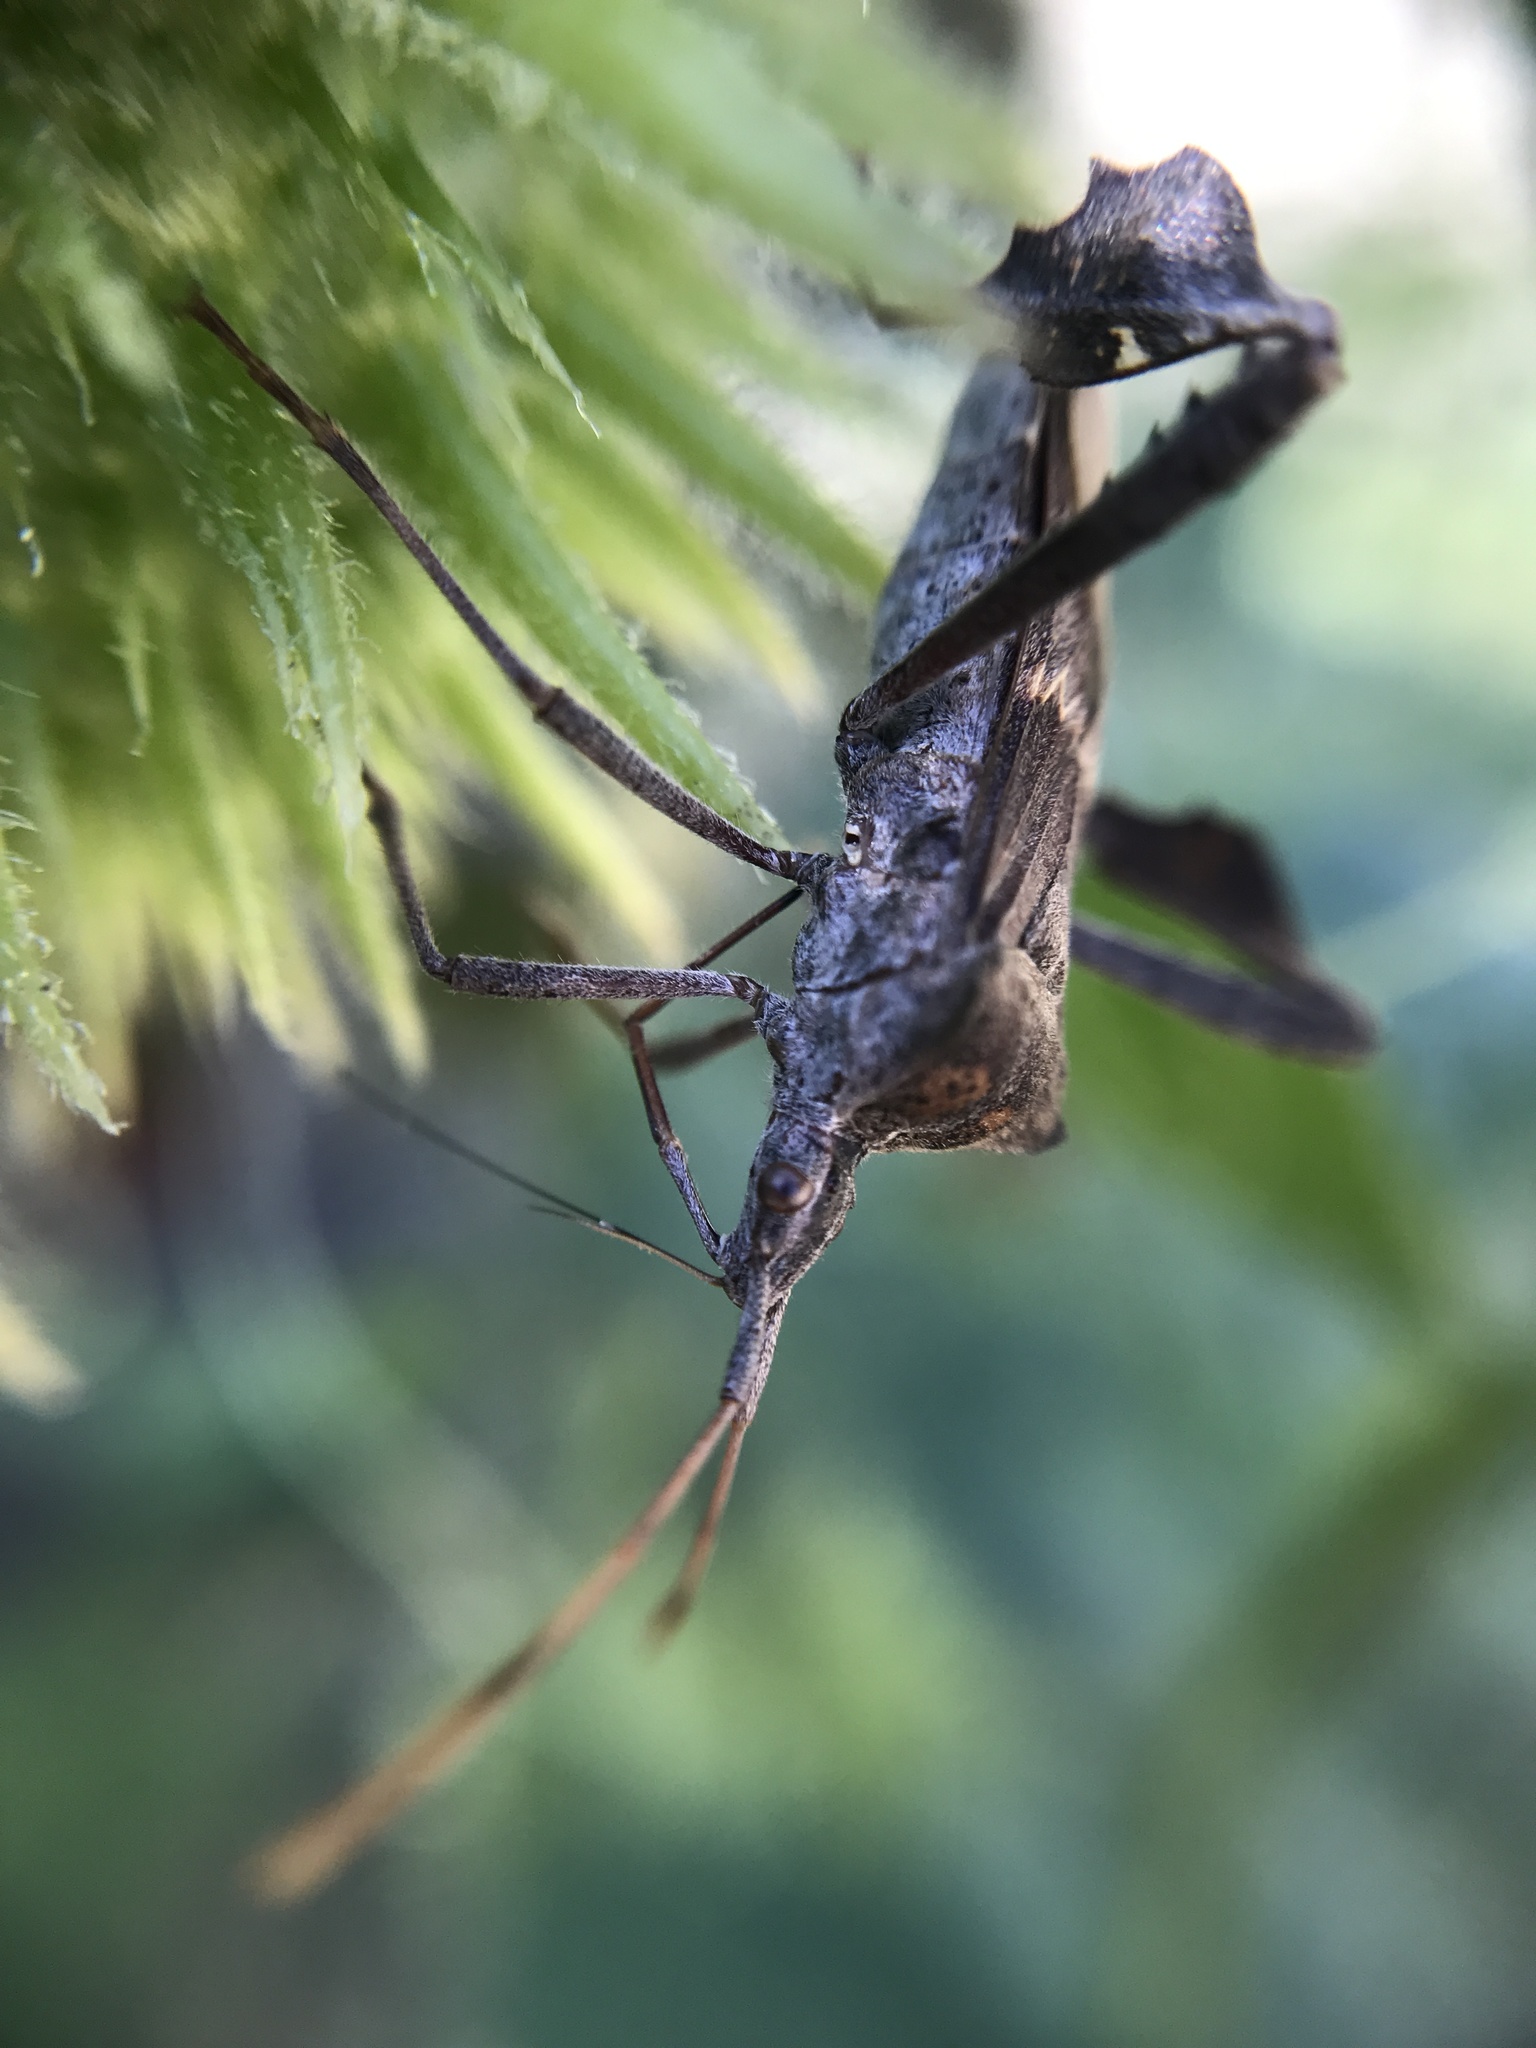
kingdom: Animalia
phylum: Arthropoda
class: Insecta
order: Hemiptera
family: Coreidae
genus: Leptoglossus
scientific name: Leptoglossus zonatus
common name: Large-legged bug
